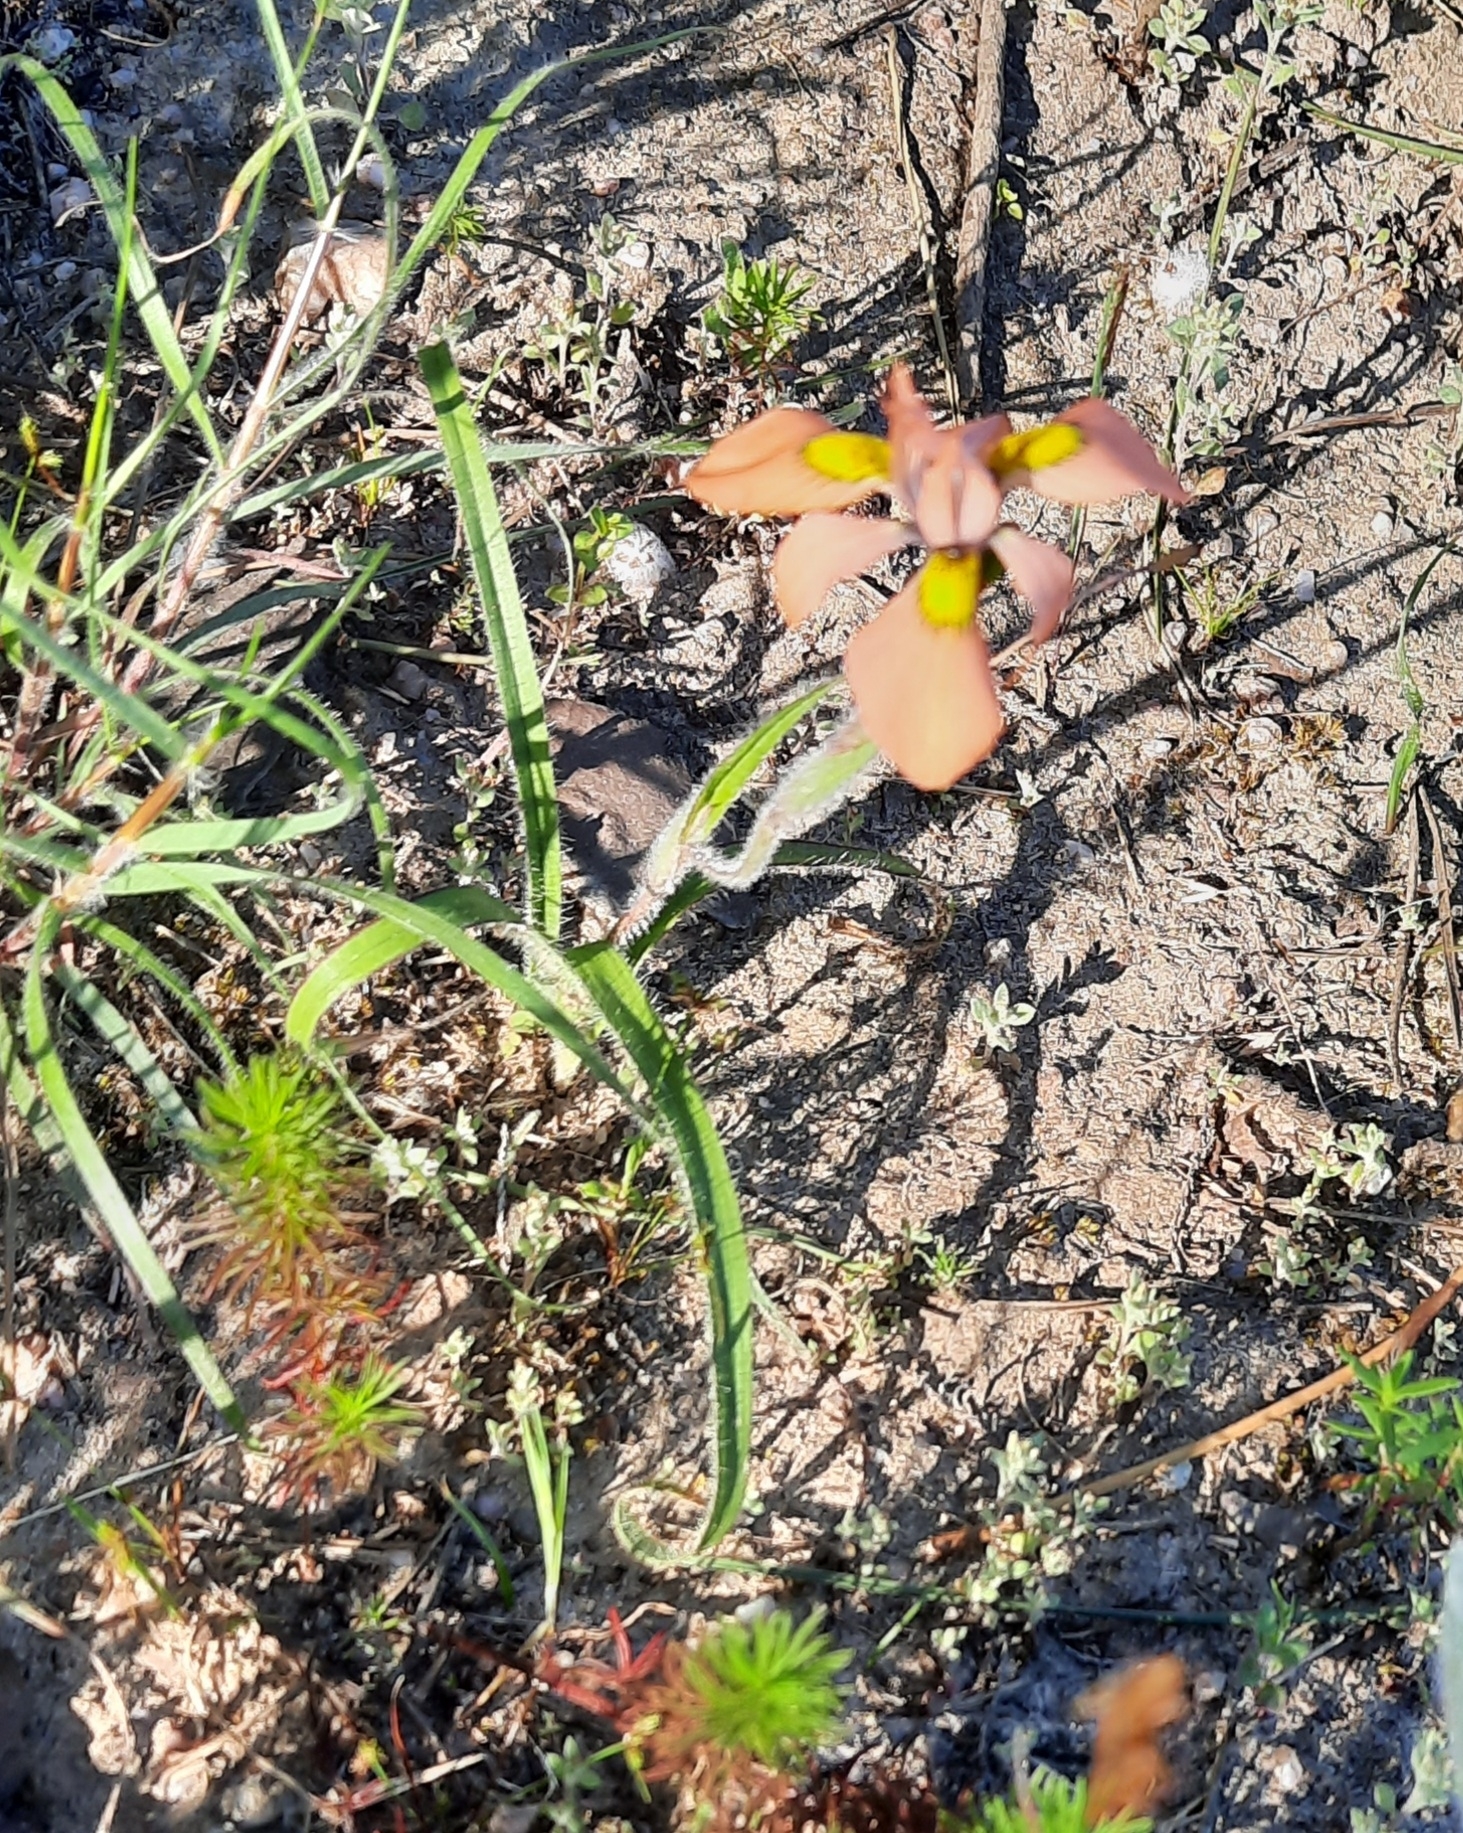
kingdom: Plantae
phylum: Tracheophyta
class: Liliopsida
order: Asparagales
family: Iridaceae
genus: Moraea
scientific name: Moraea papilionacea
